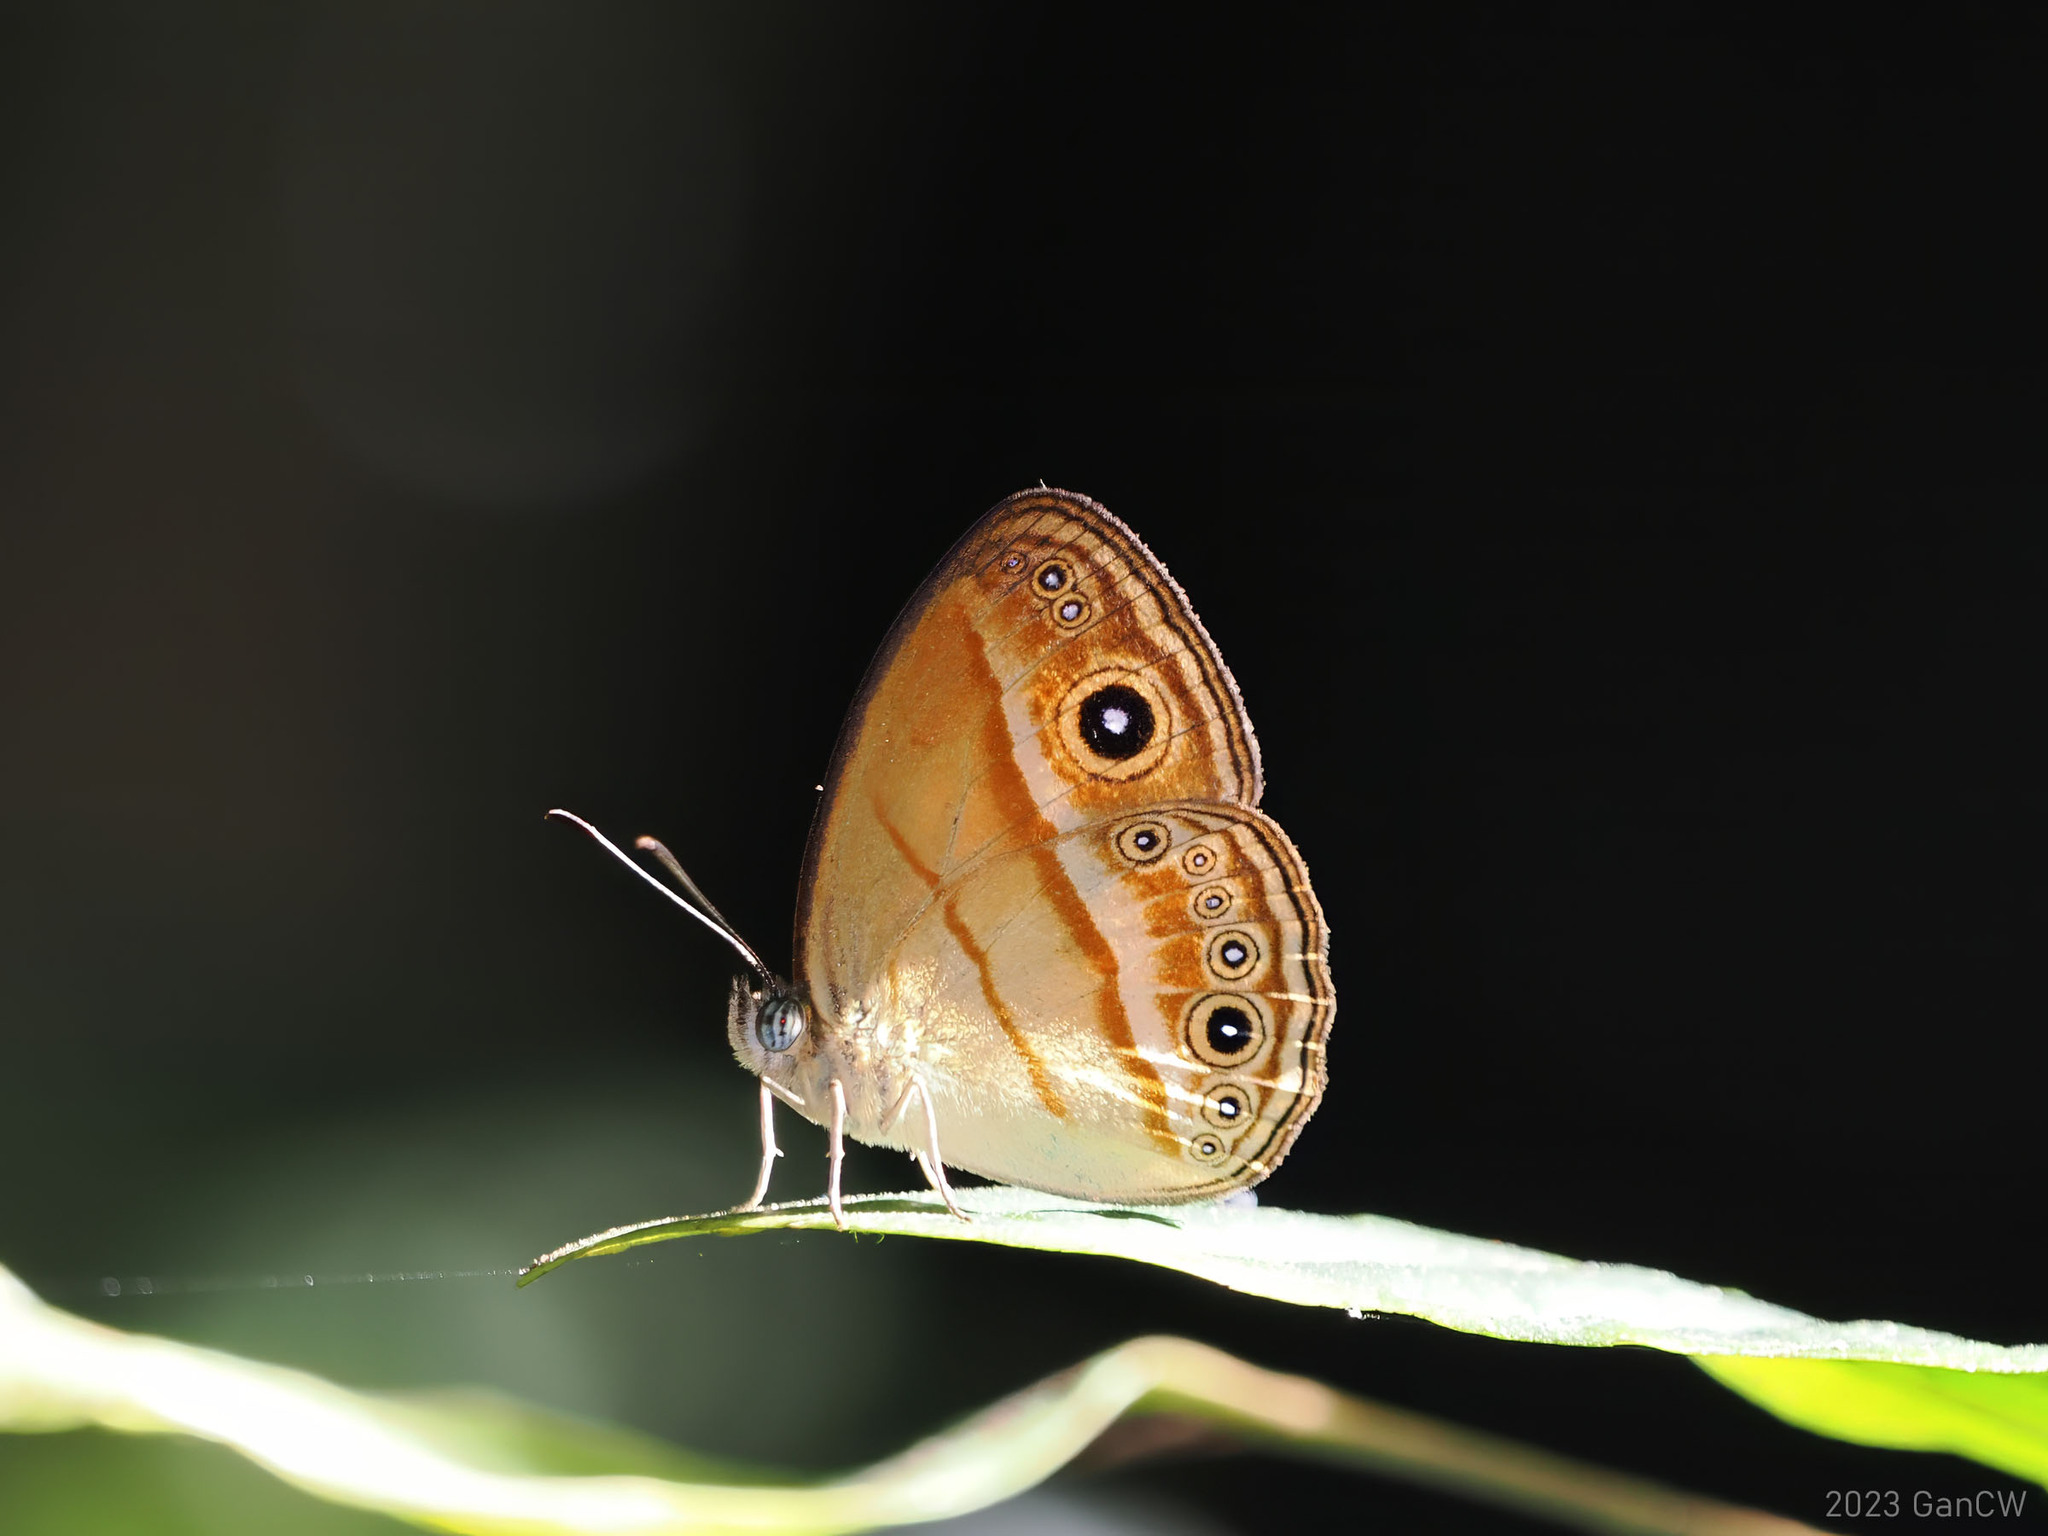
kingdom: Animalia
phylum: Arthropoda
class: Insecta
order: Lepidoptera
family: Nymphalidae
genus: Mycalesis
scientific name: Mycalesis ita
